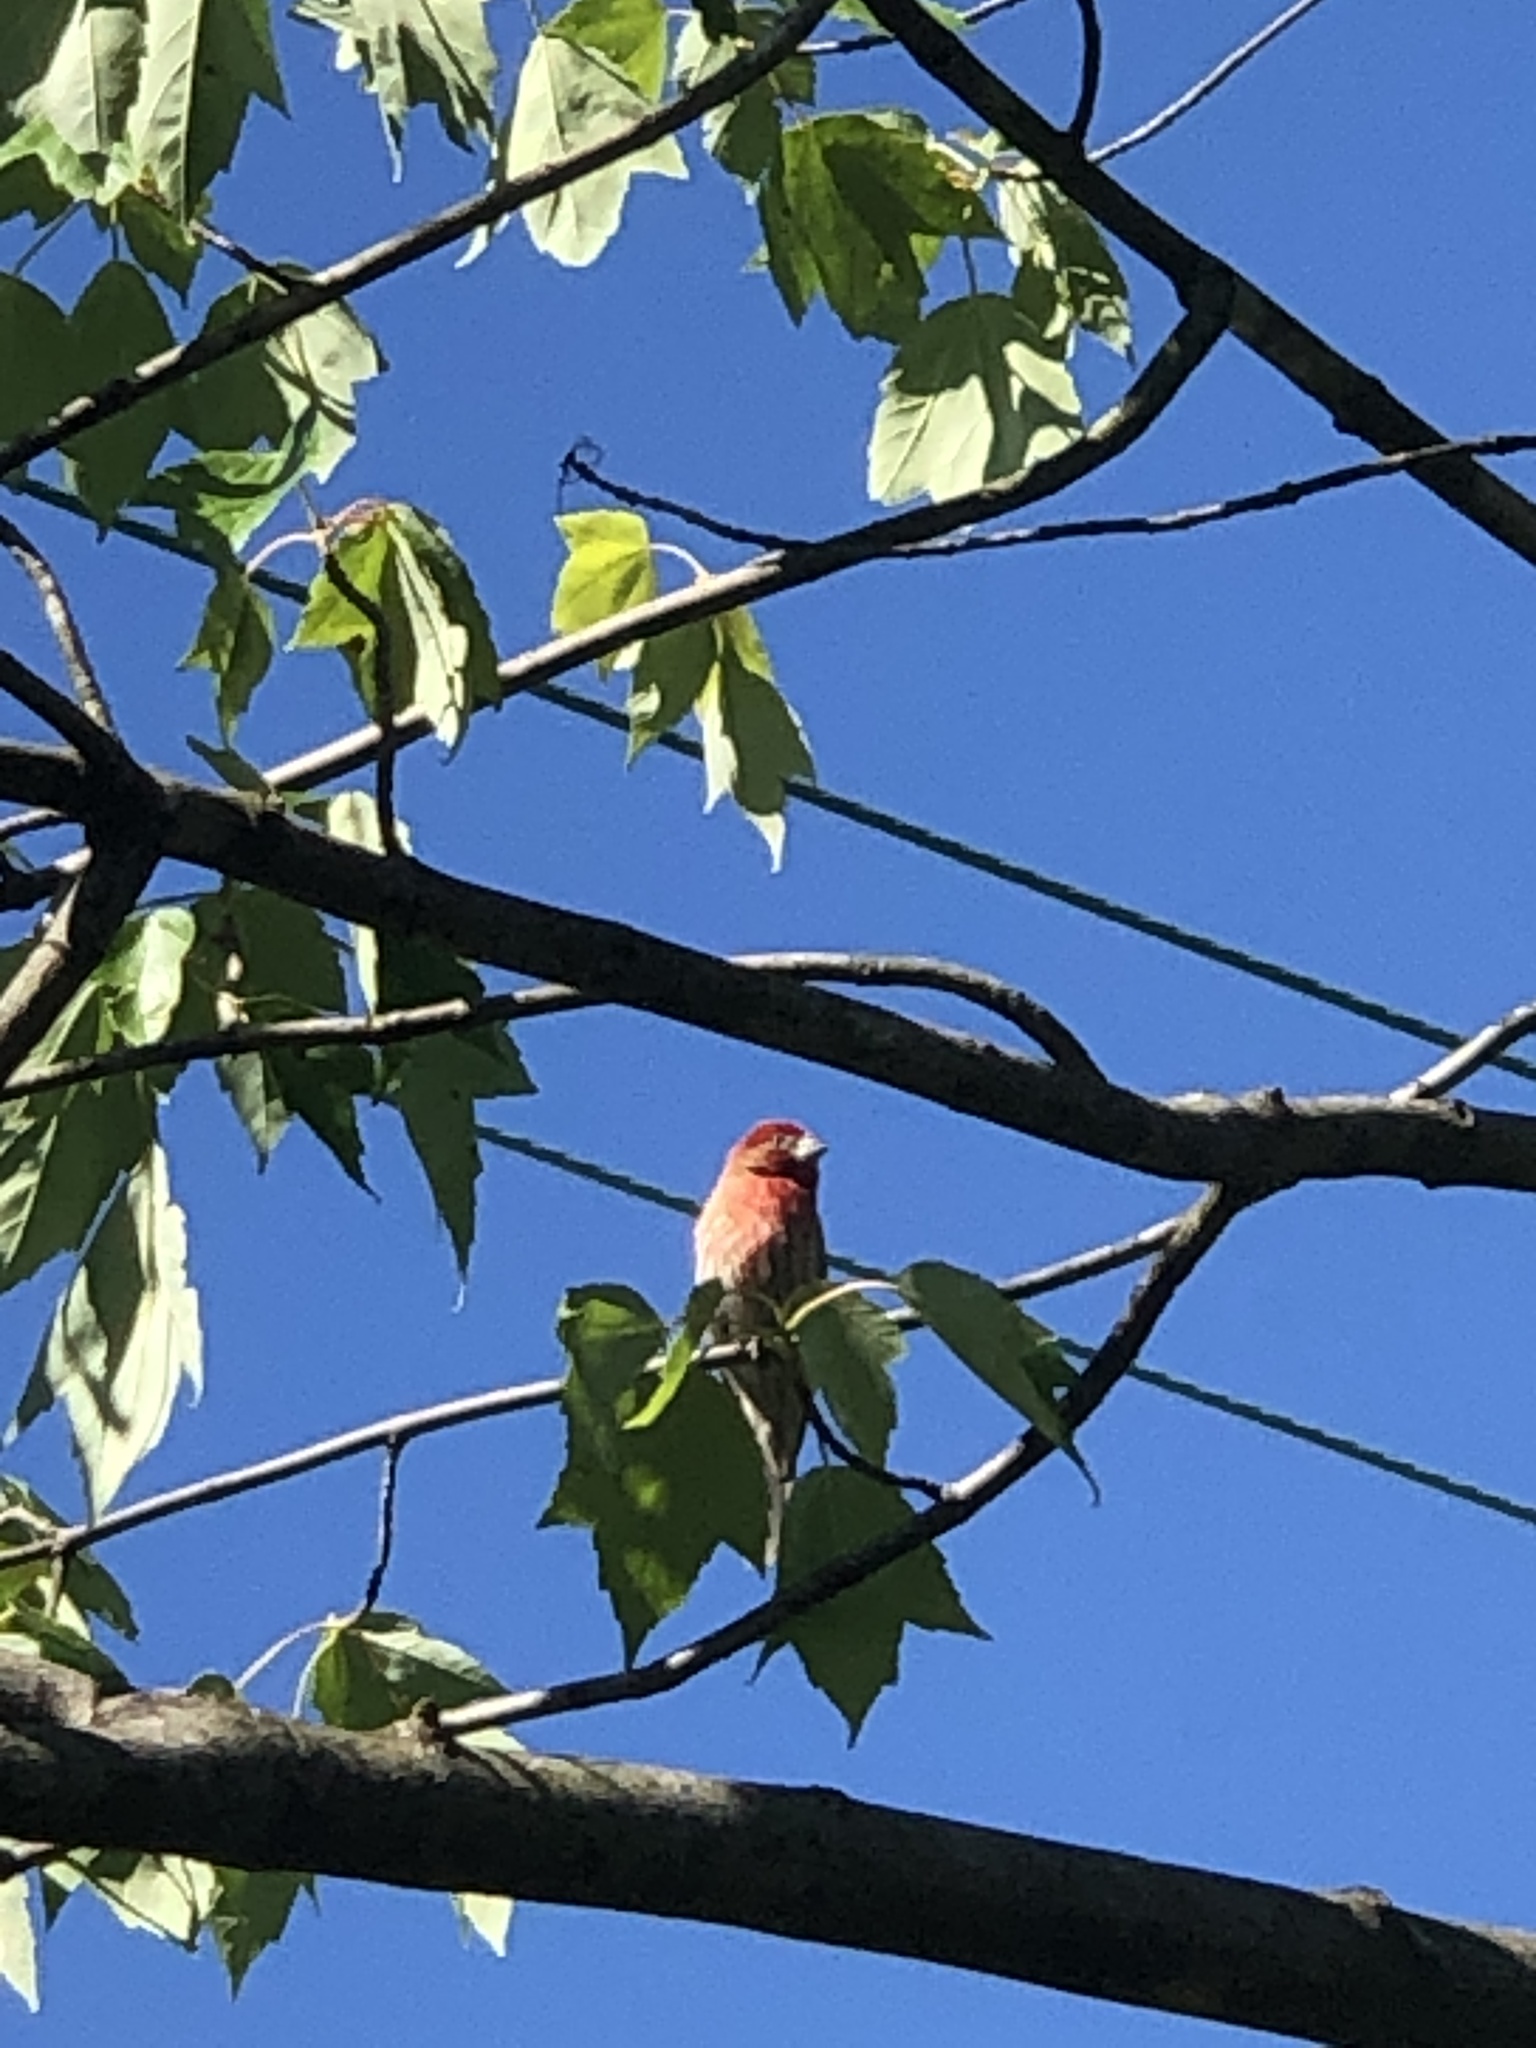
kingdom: Animalia
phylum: Chordata
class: Aves
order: Passeriformes
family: Fringillidae
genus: Haemorhous
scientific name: Haemorhous mexicanus
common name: House finch
